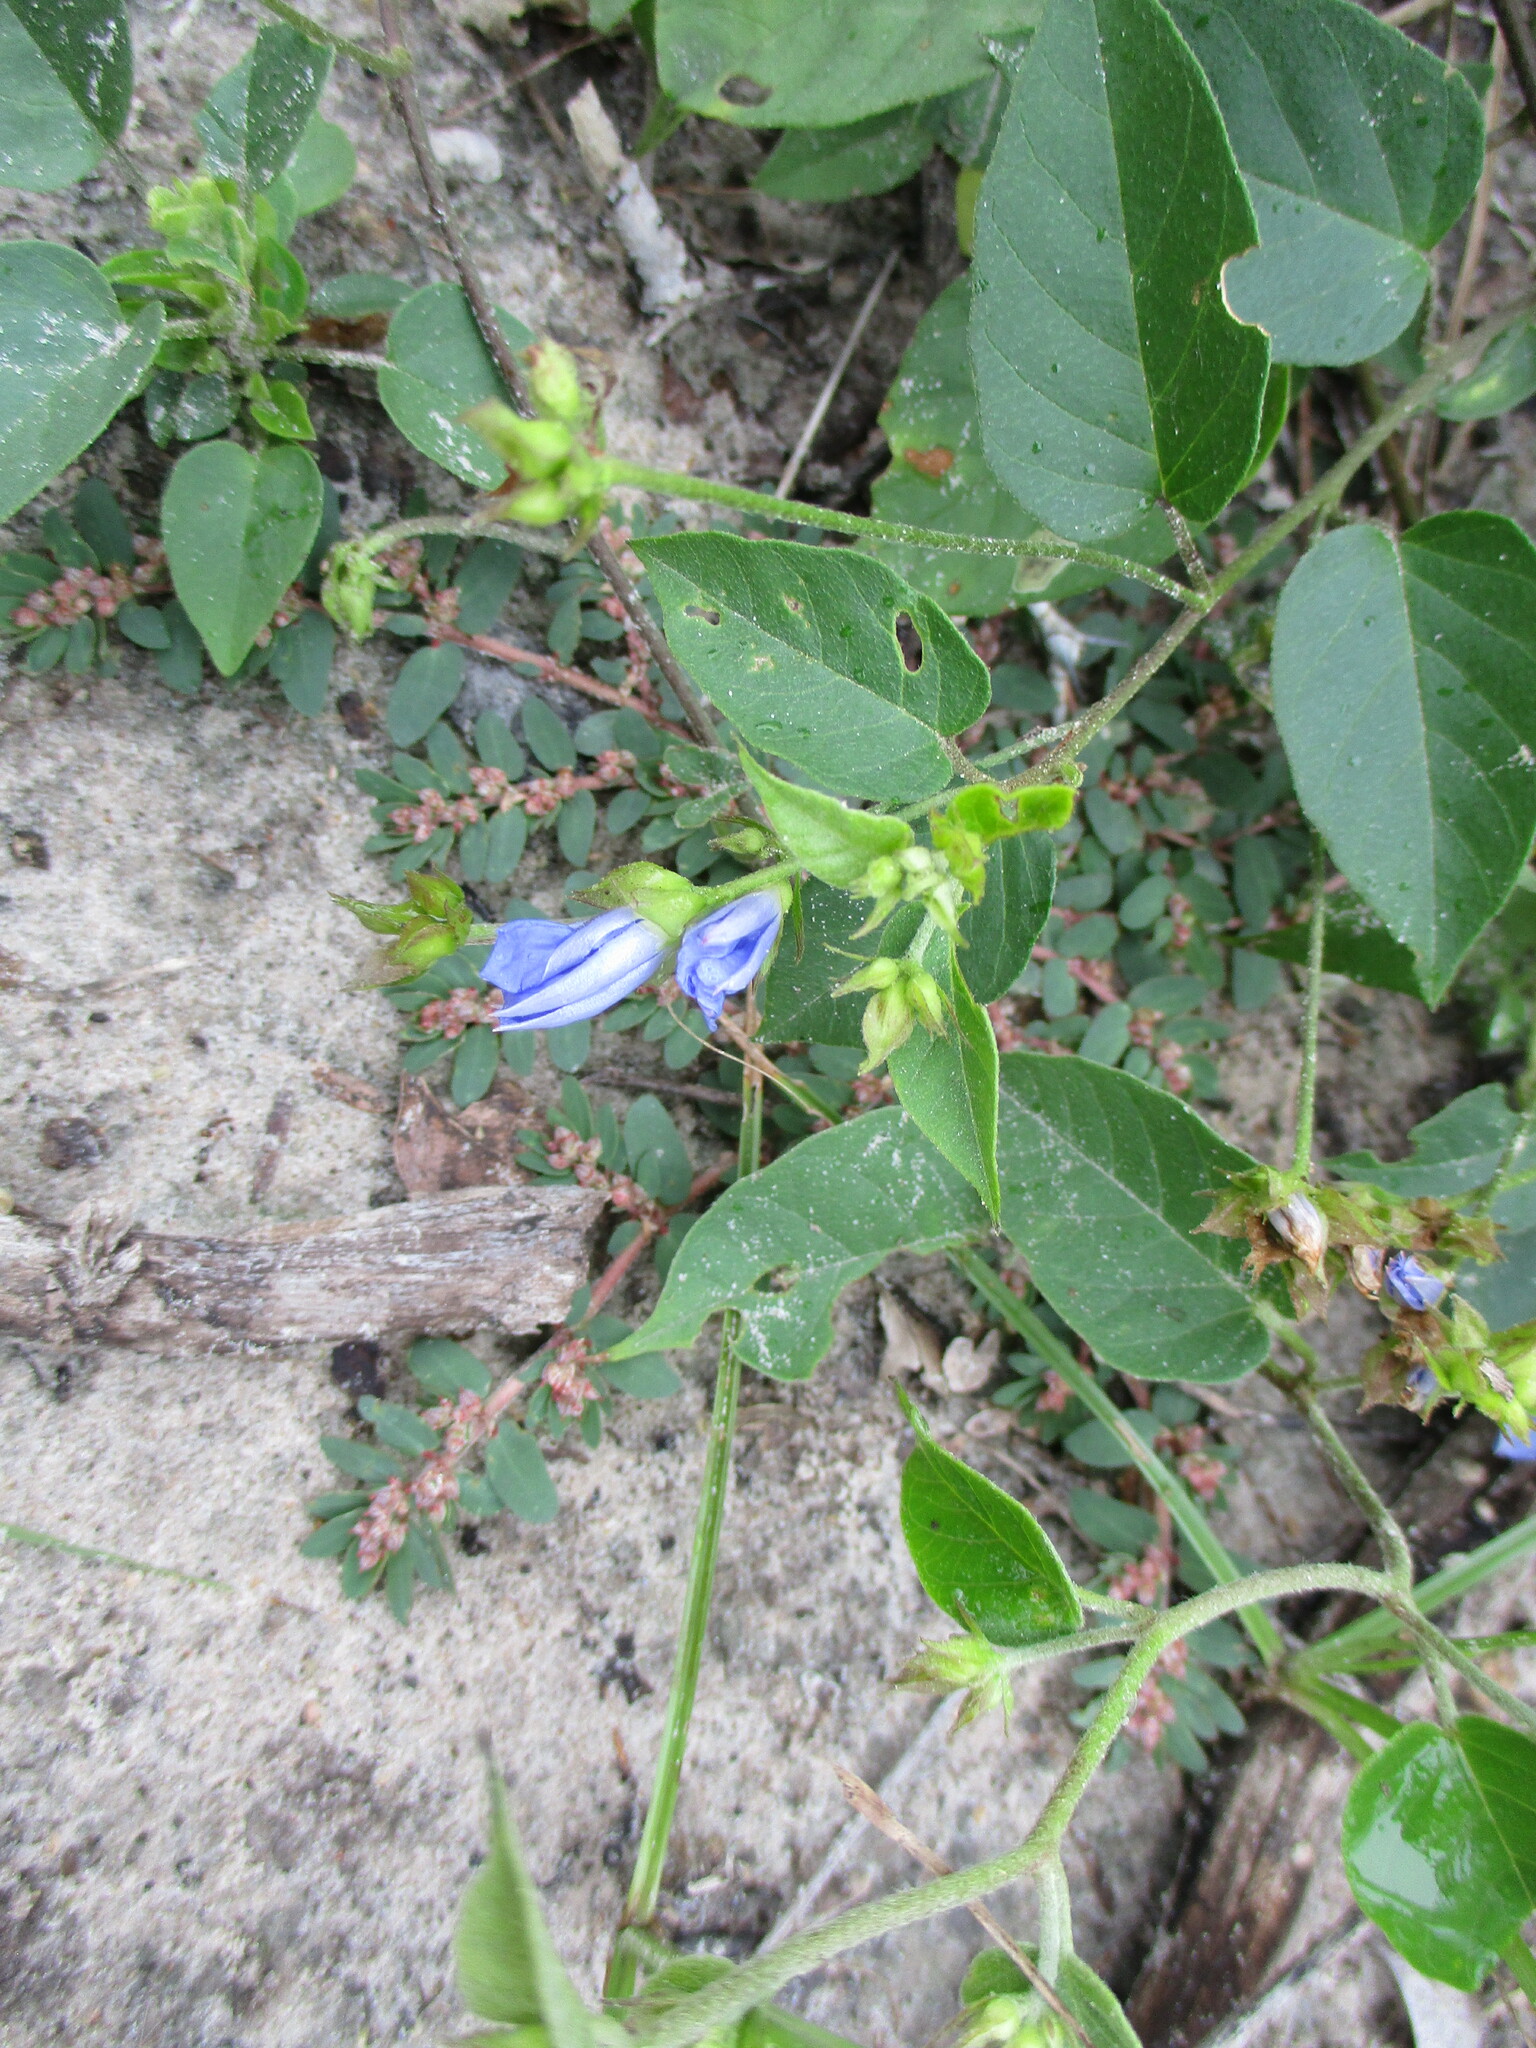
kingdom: Plantae
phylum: Tracheophyta
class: Magnoliopsida
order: Solanales
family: Convolvulaceae
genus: Jacquemontia
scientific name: Jacquemontia pentanthos
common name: Skyblue clustervine
